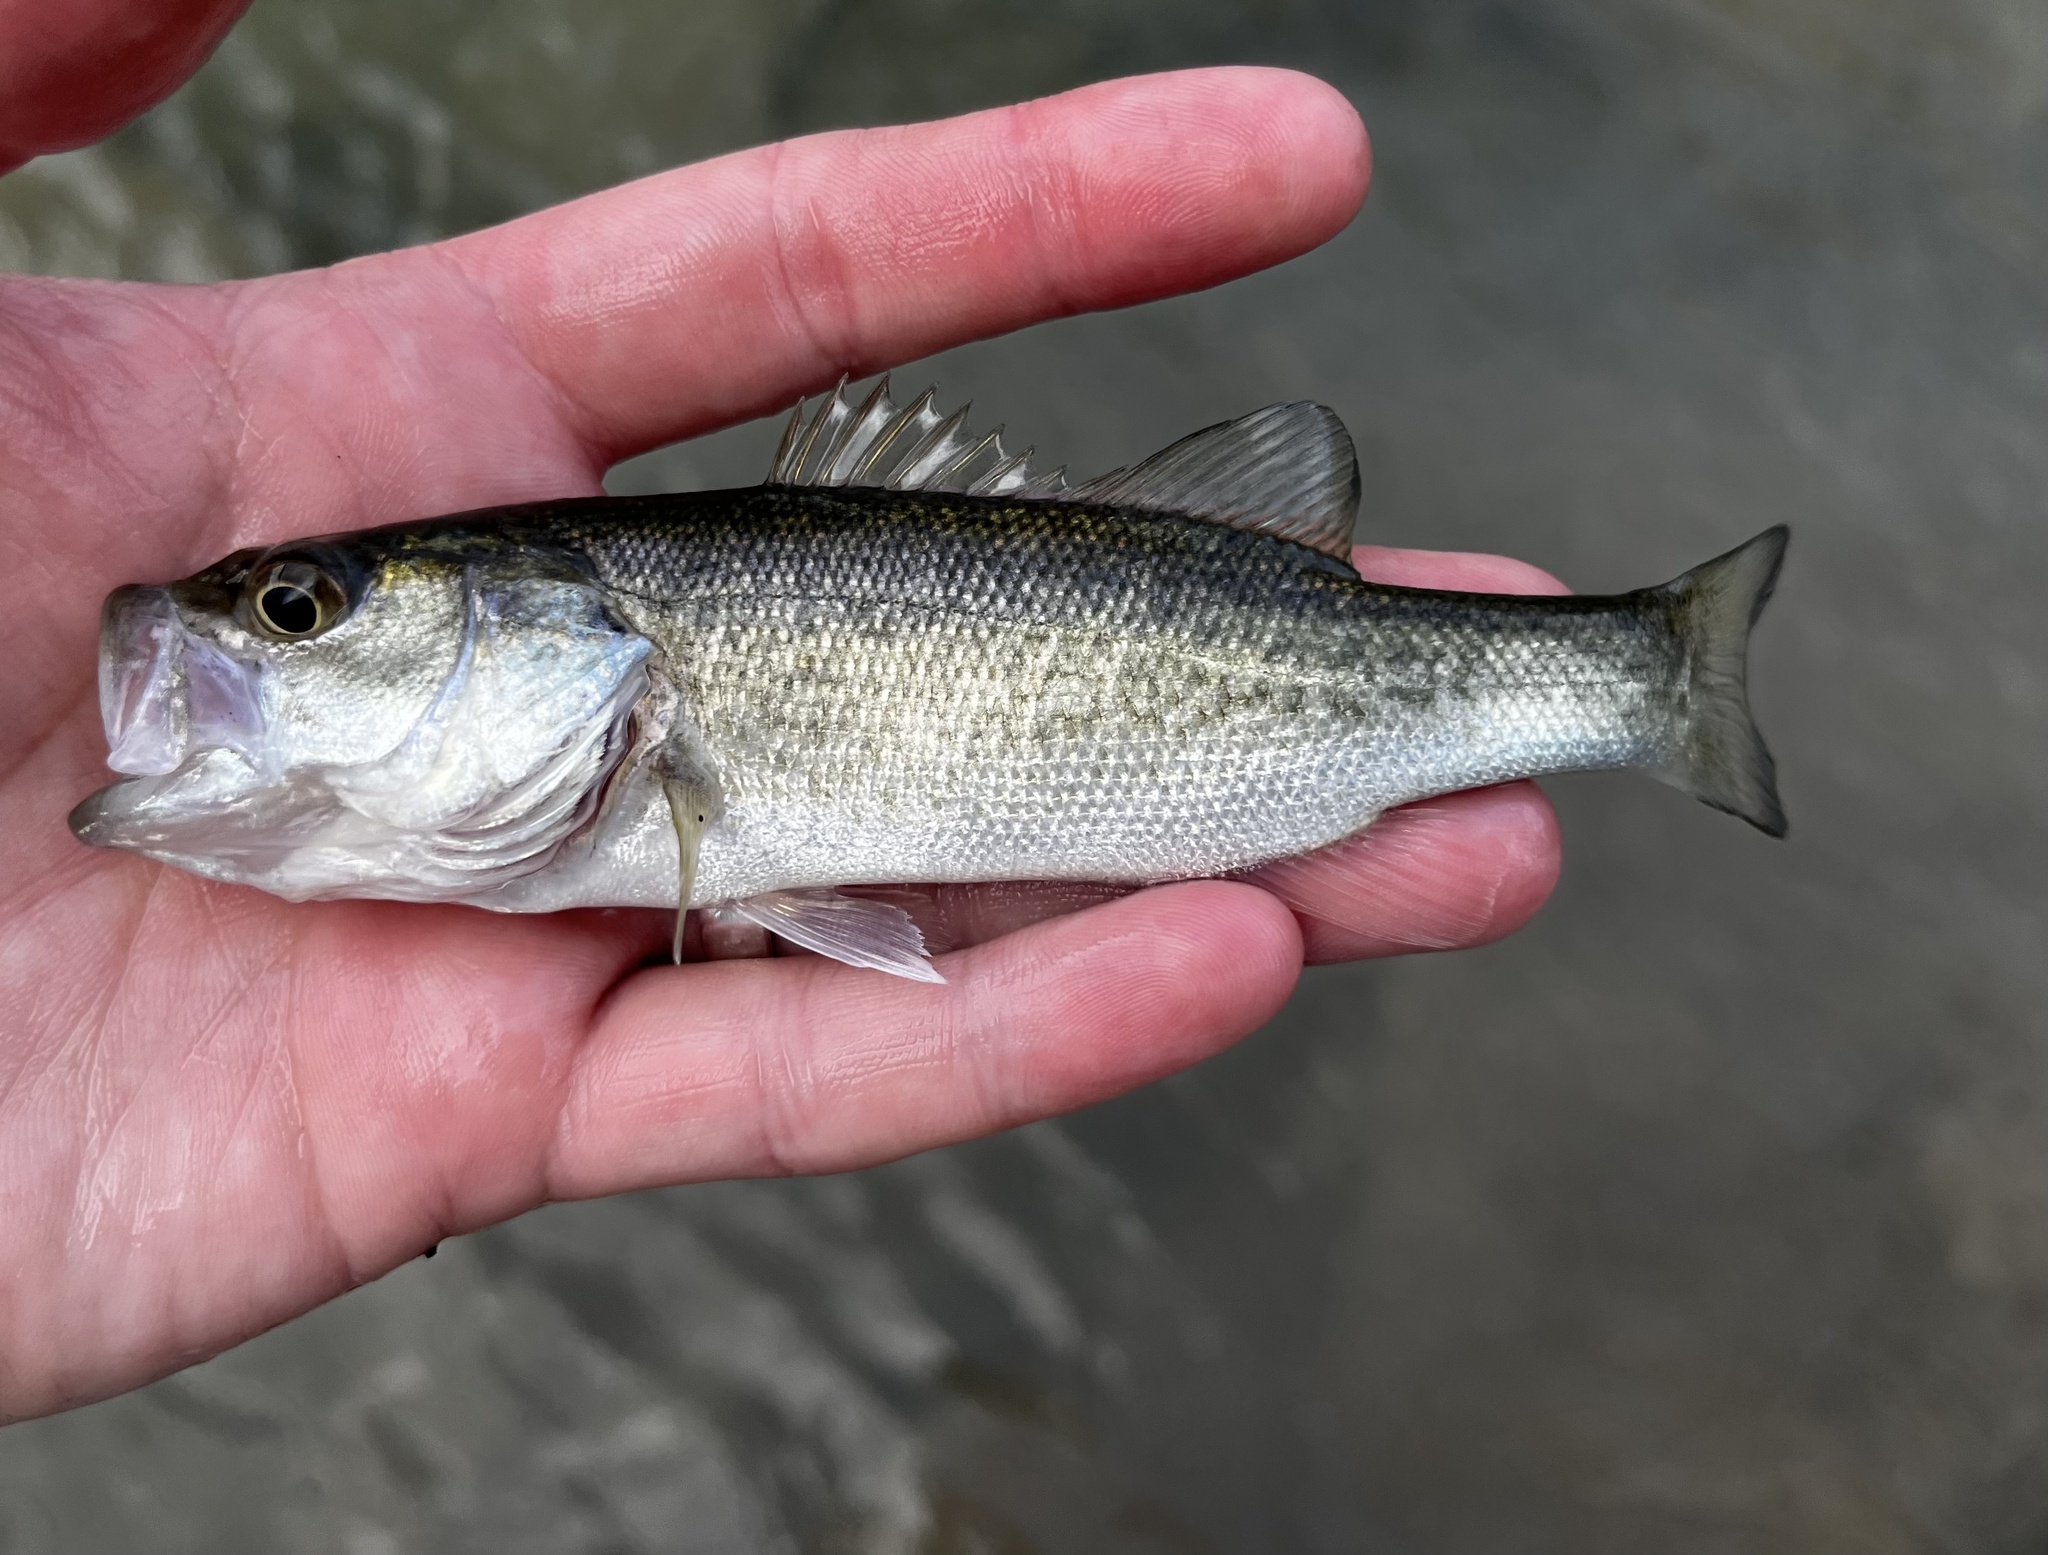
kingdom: Animalia
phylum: Chordata
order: Perciformes
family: Centrarchidae
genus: Micropterus
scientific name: Micropterus
